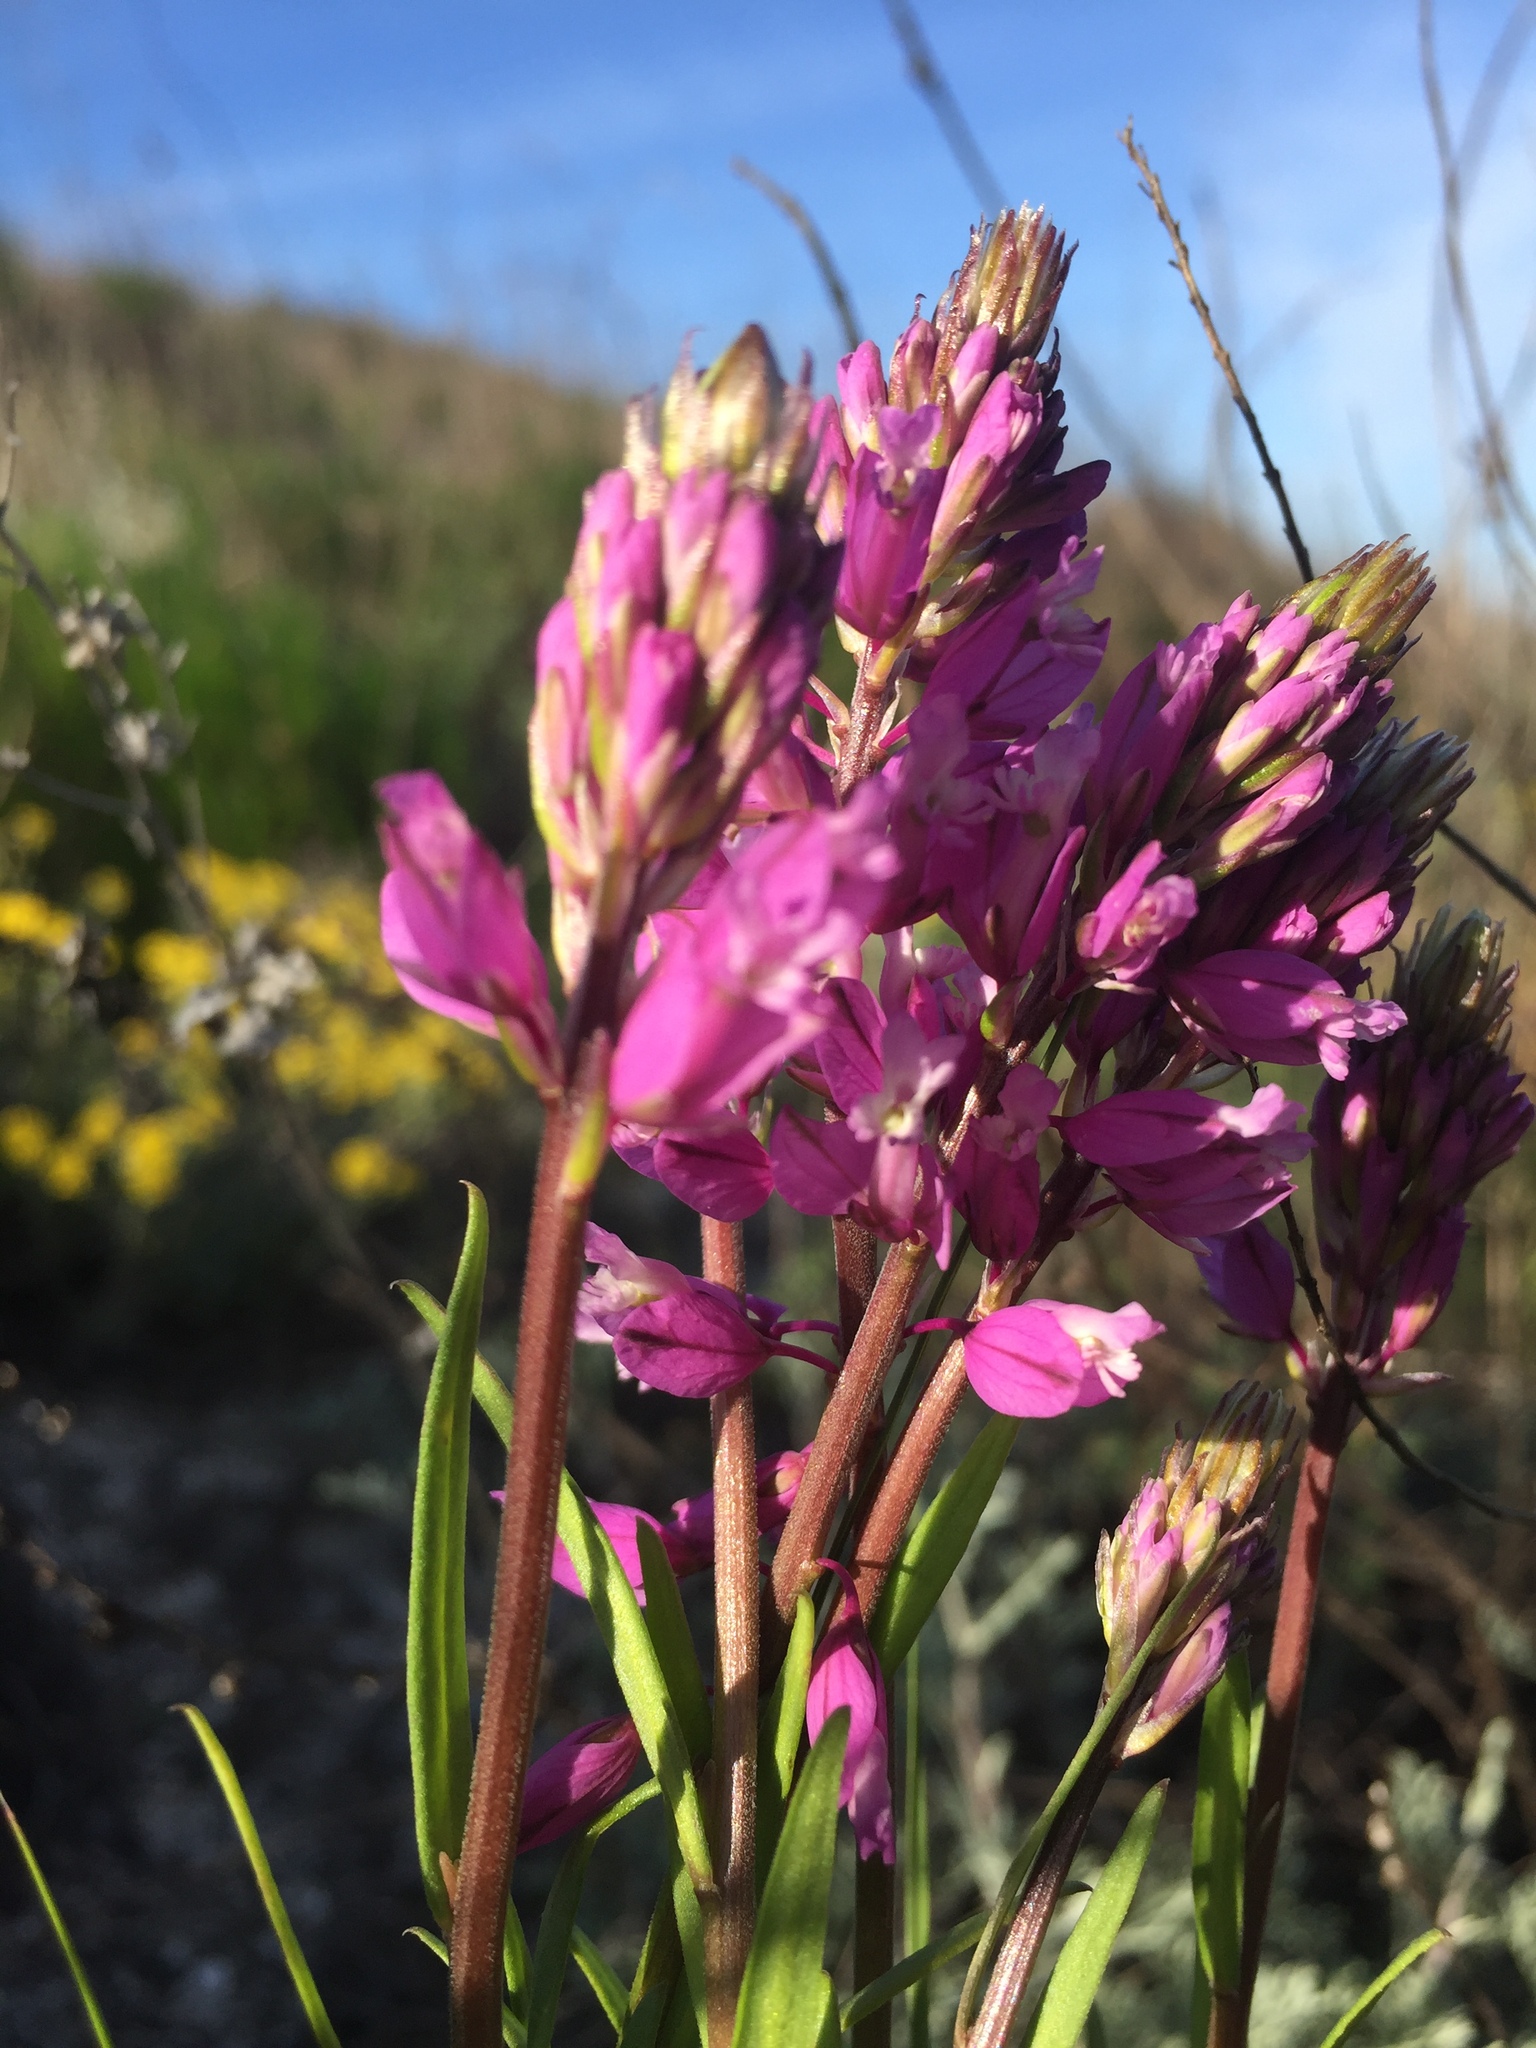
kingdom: Plantae
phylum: Tracheophyta
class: Magnoliopsida
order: Fabales
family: Polygalaceae
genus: Polygala
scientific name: Polygala nicaeensis
